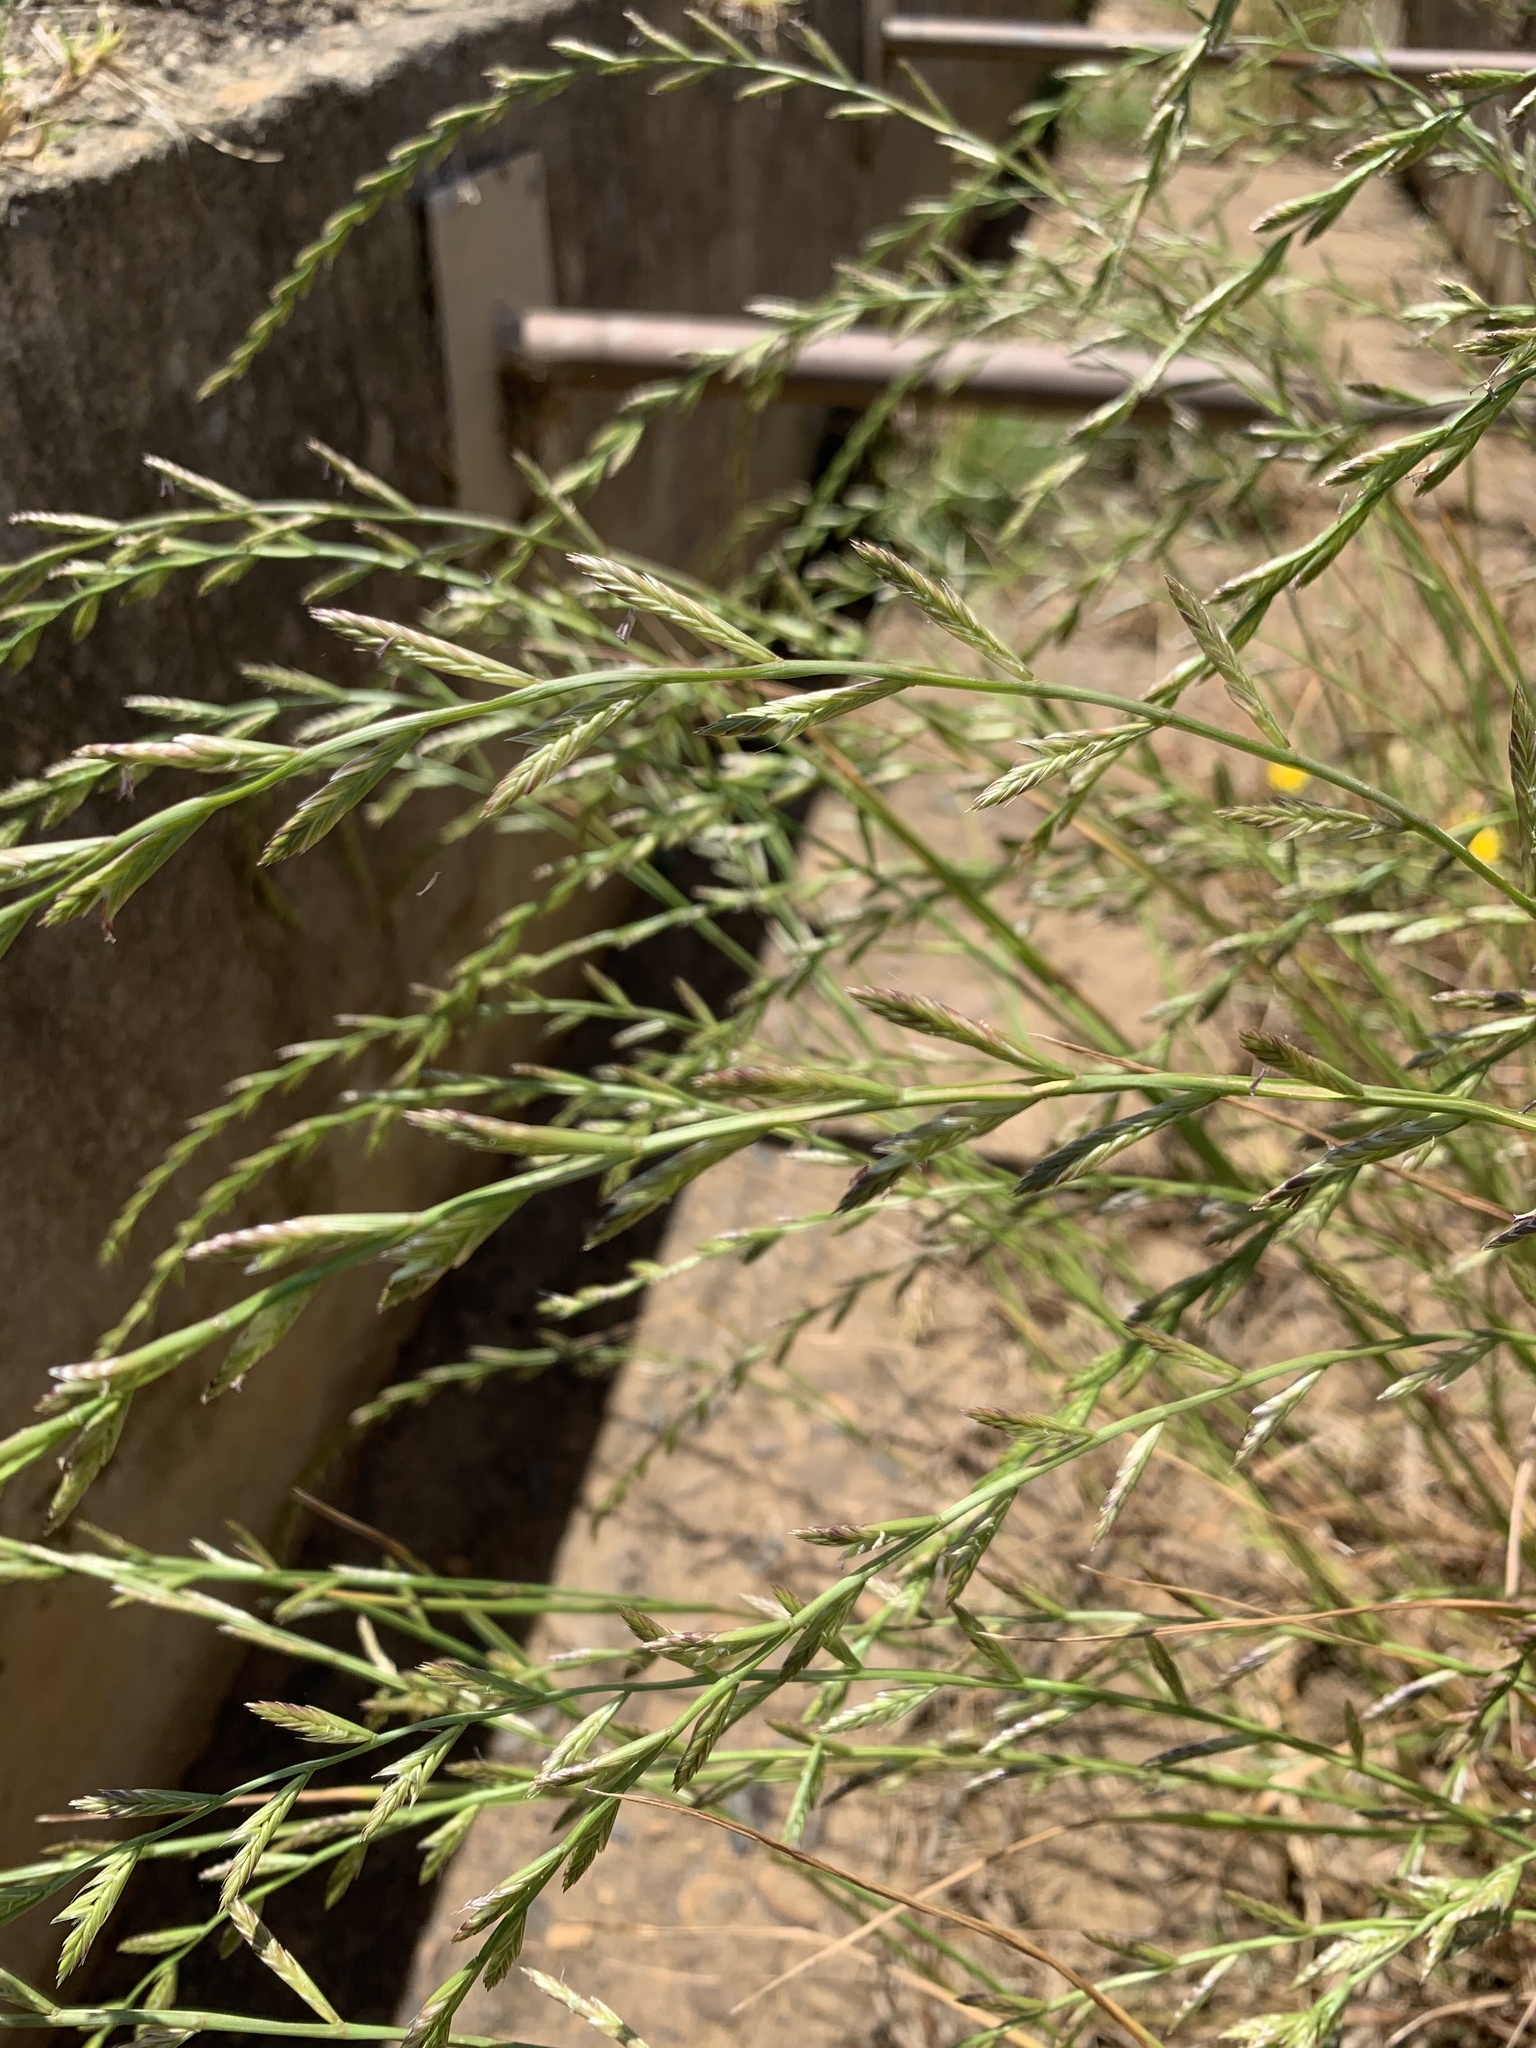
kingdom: Plantae
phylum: Tracheophyta
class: Liliopsida
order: Poales
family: Poaceae
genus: Lolium
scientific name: Lolium multiflorum
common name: Annual ryegrass
